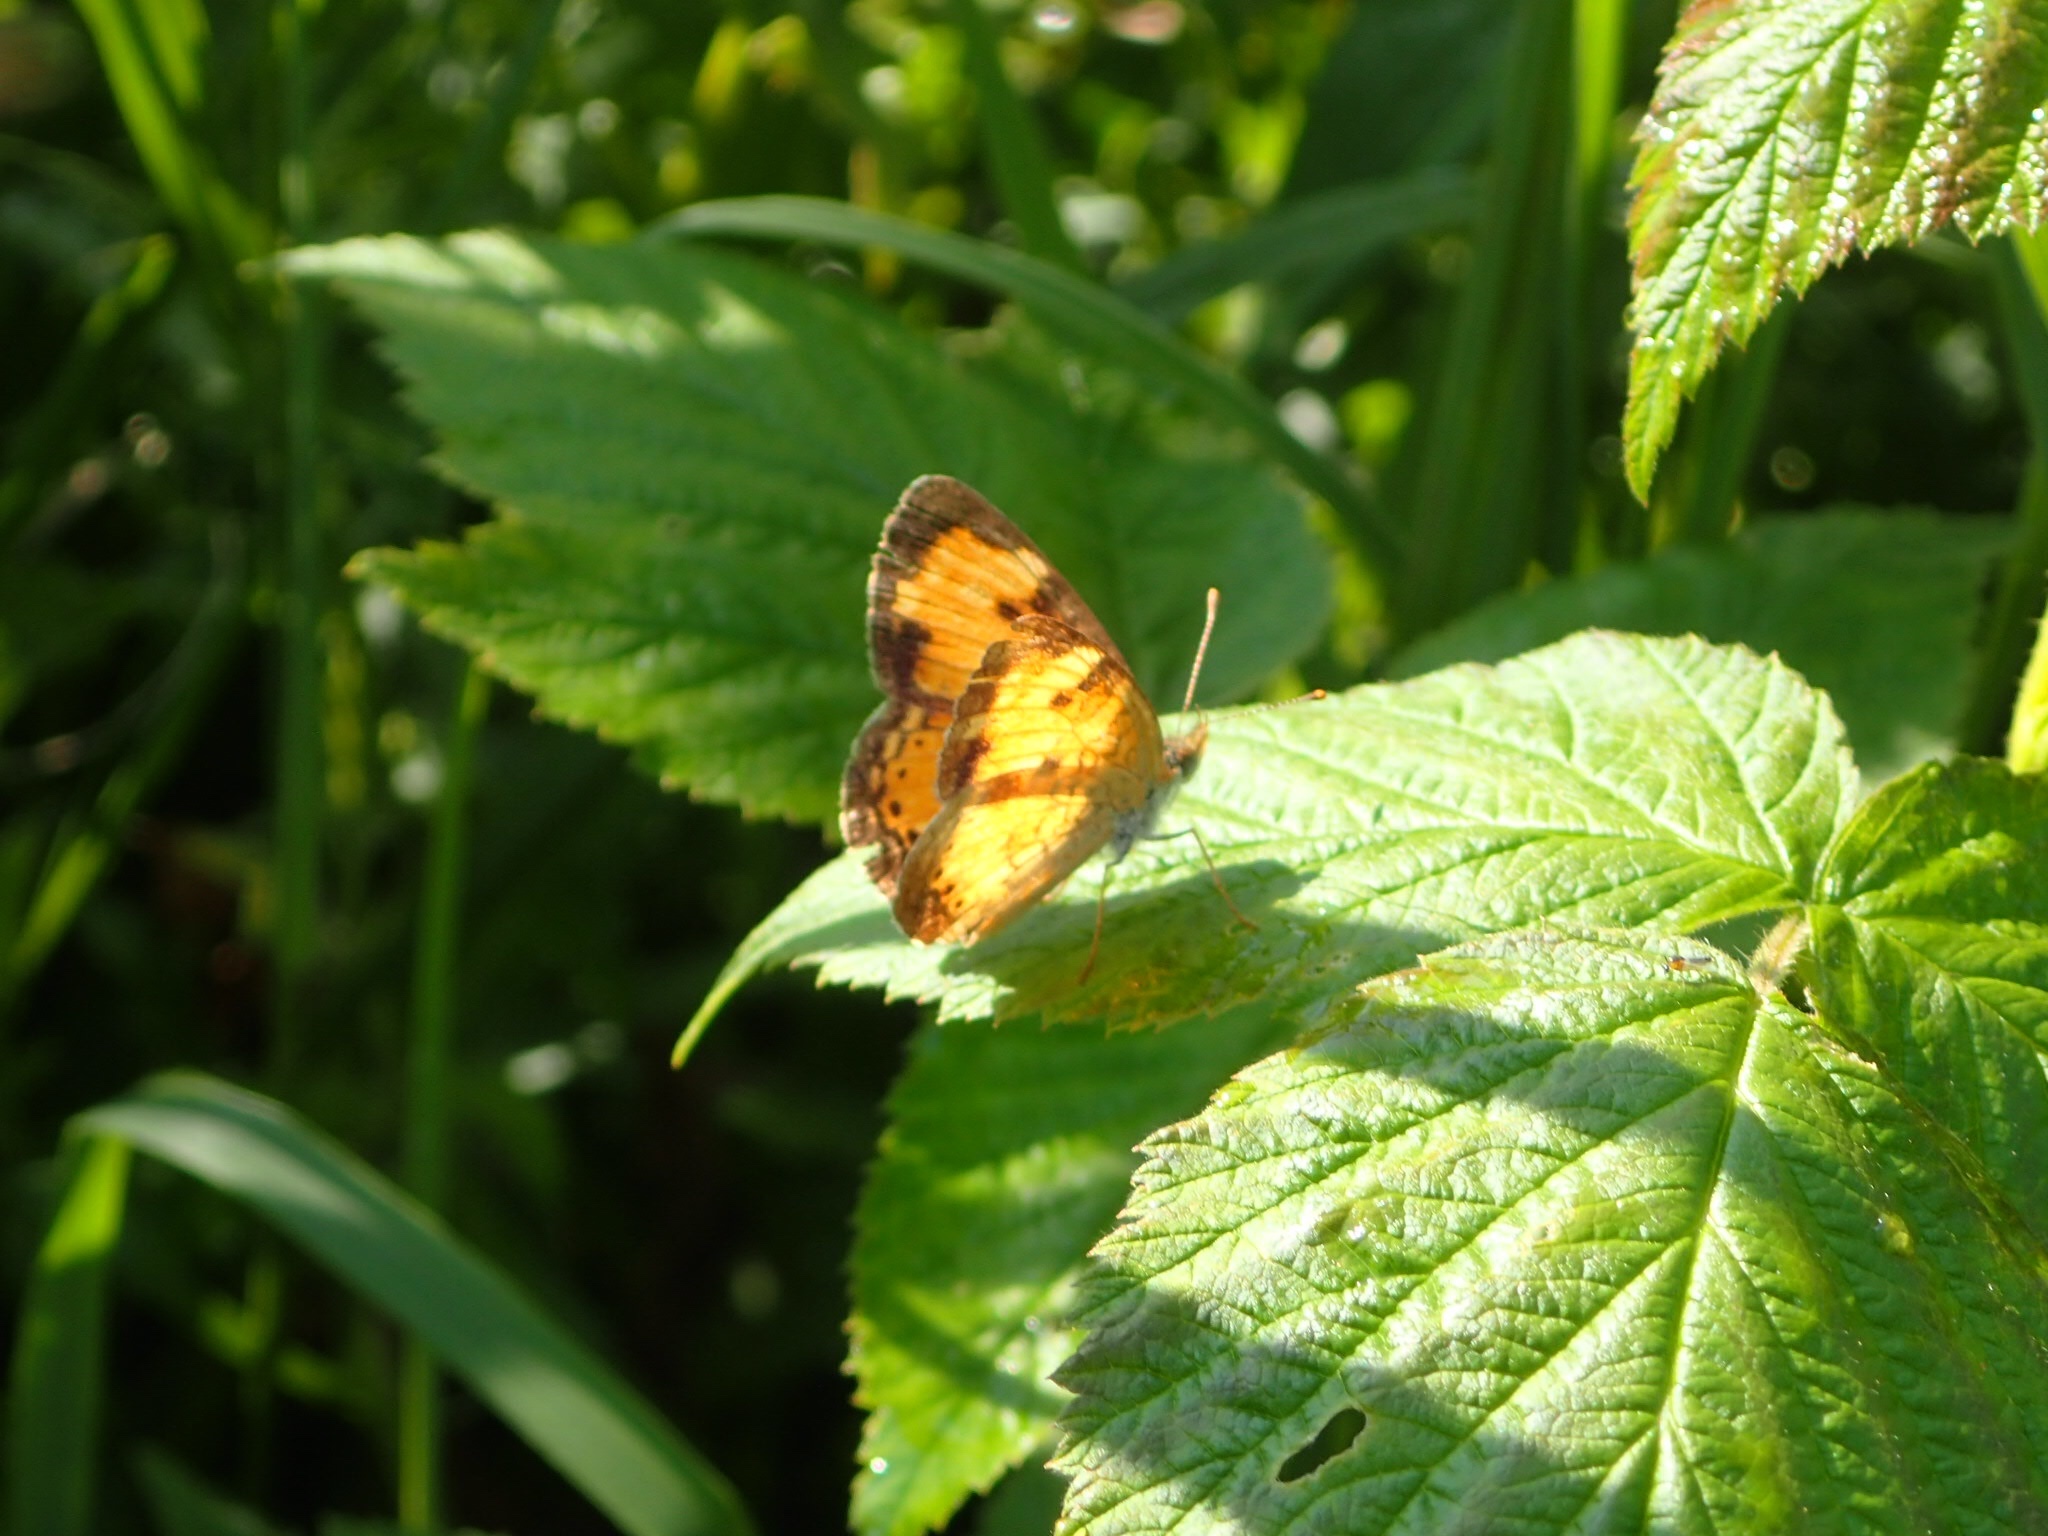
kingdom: Animalia
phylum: Arthropoda
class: Insecta
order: Lepidoptera
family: Nymphalidae
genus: Phyciodes
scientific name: Phyciodes tharos
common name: Pearl crescent
